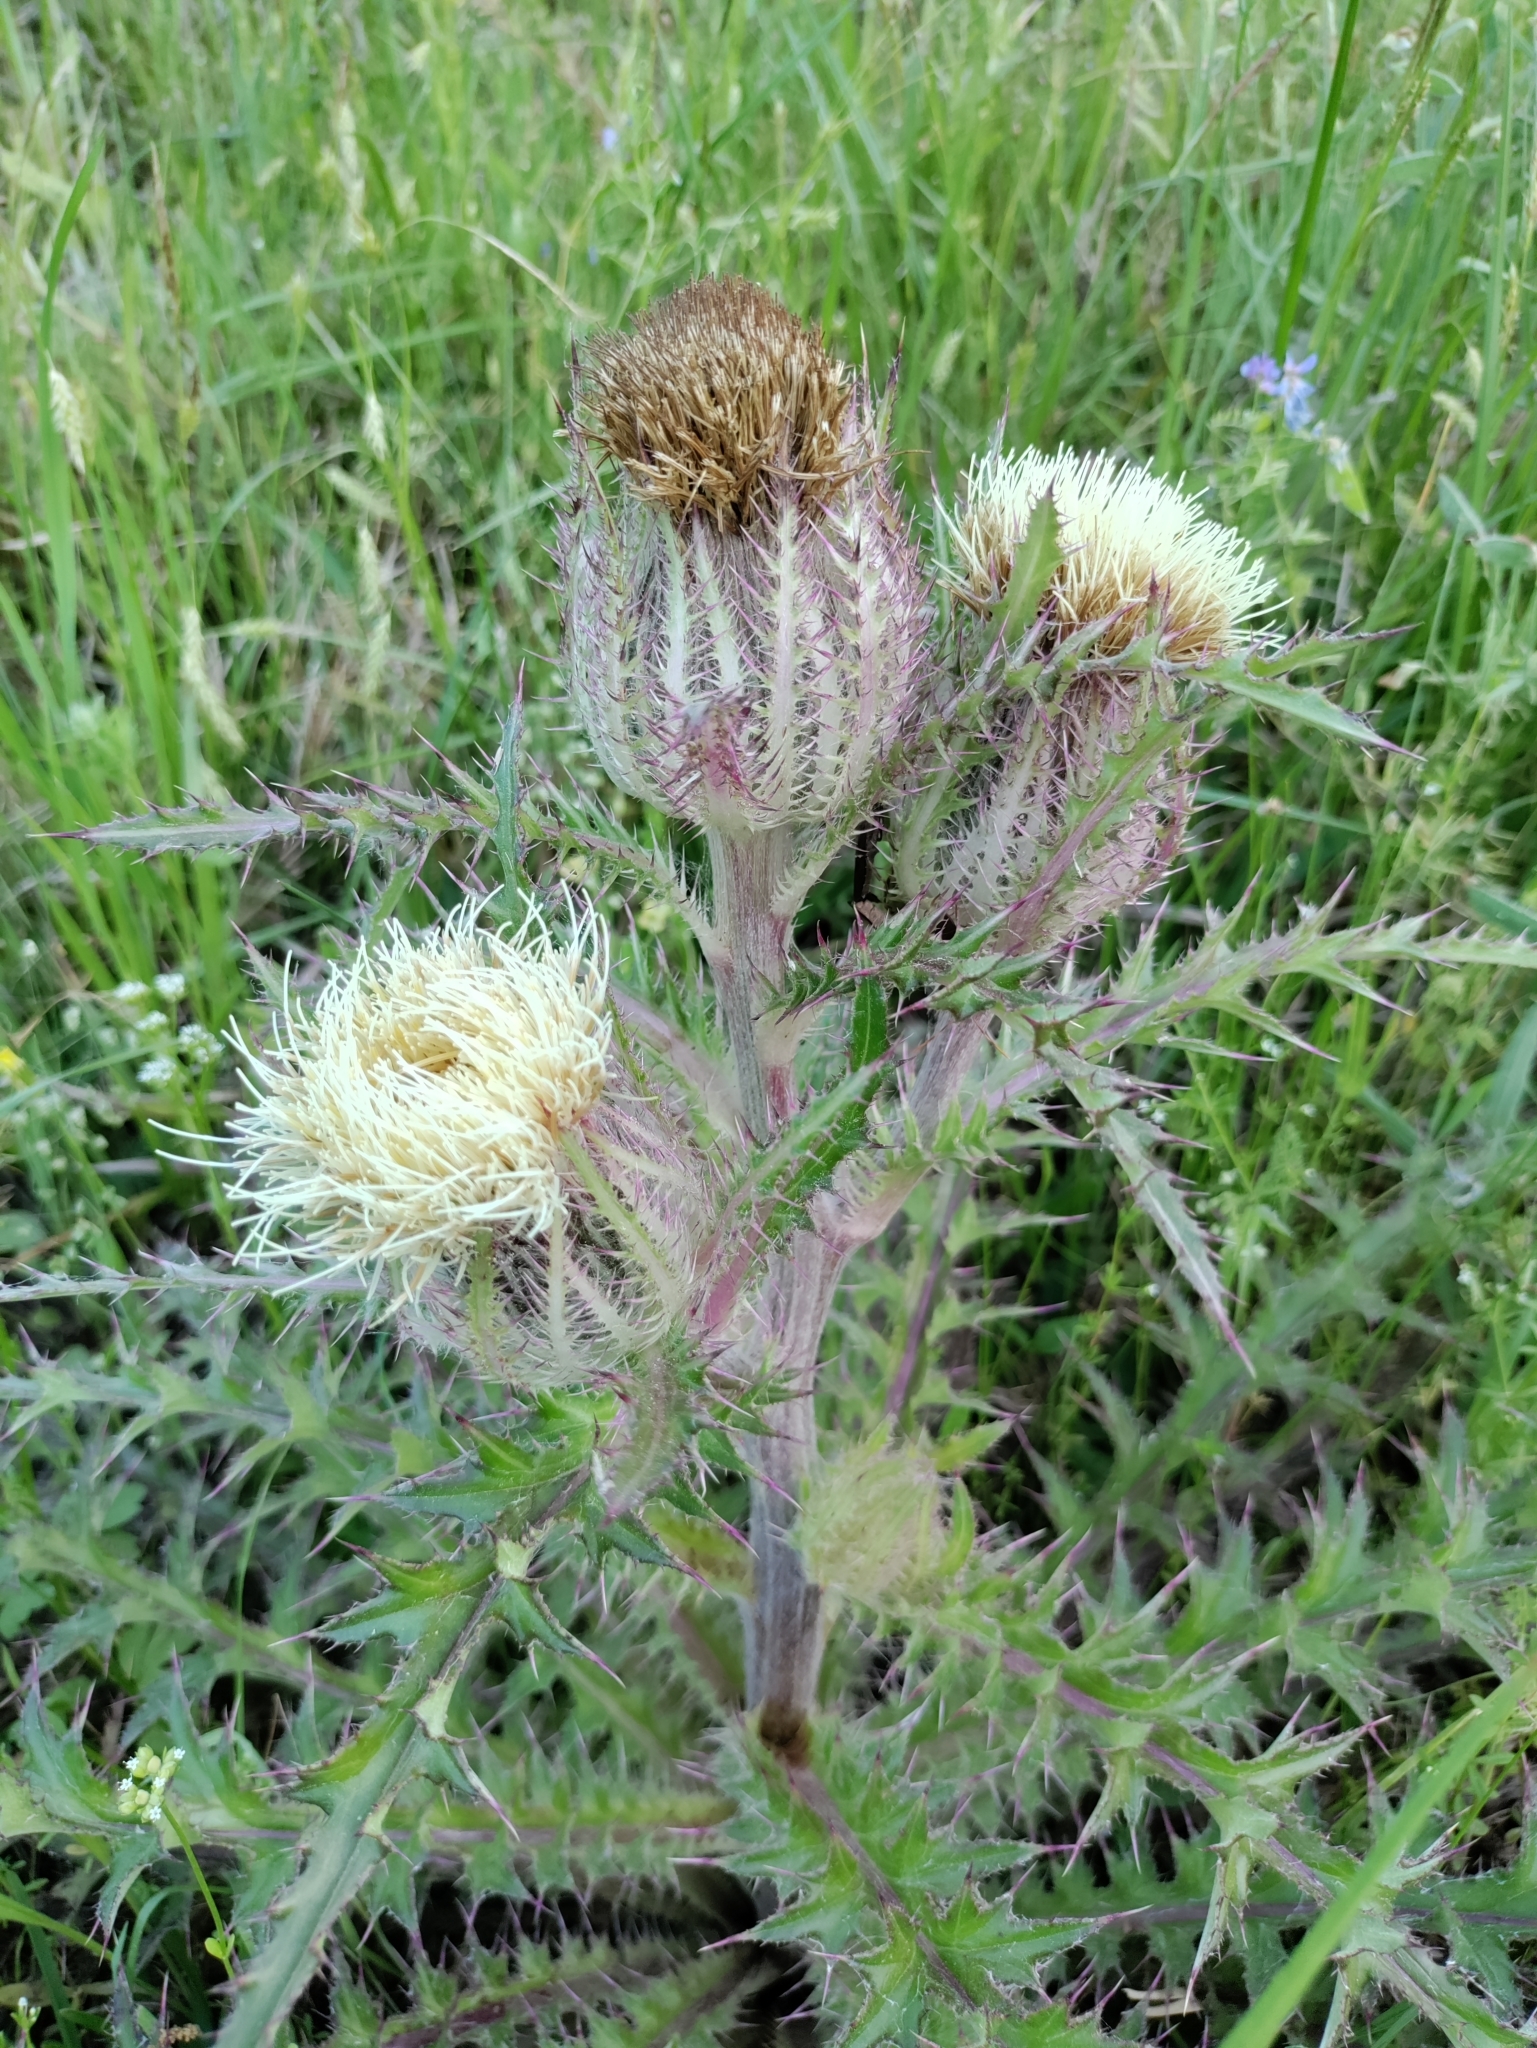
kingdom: Plantae
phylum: Tracheophyta
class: Magnoliopsida
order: Asterales
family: Asteraceae
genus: Cirsium
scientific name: Cirsium horridulum
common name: Bristly thistle
